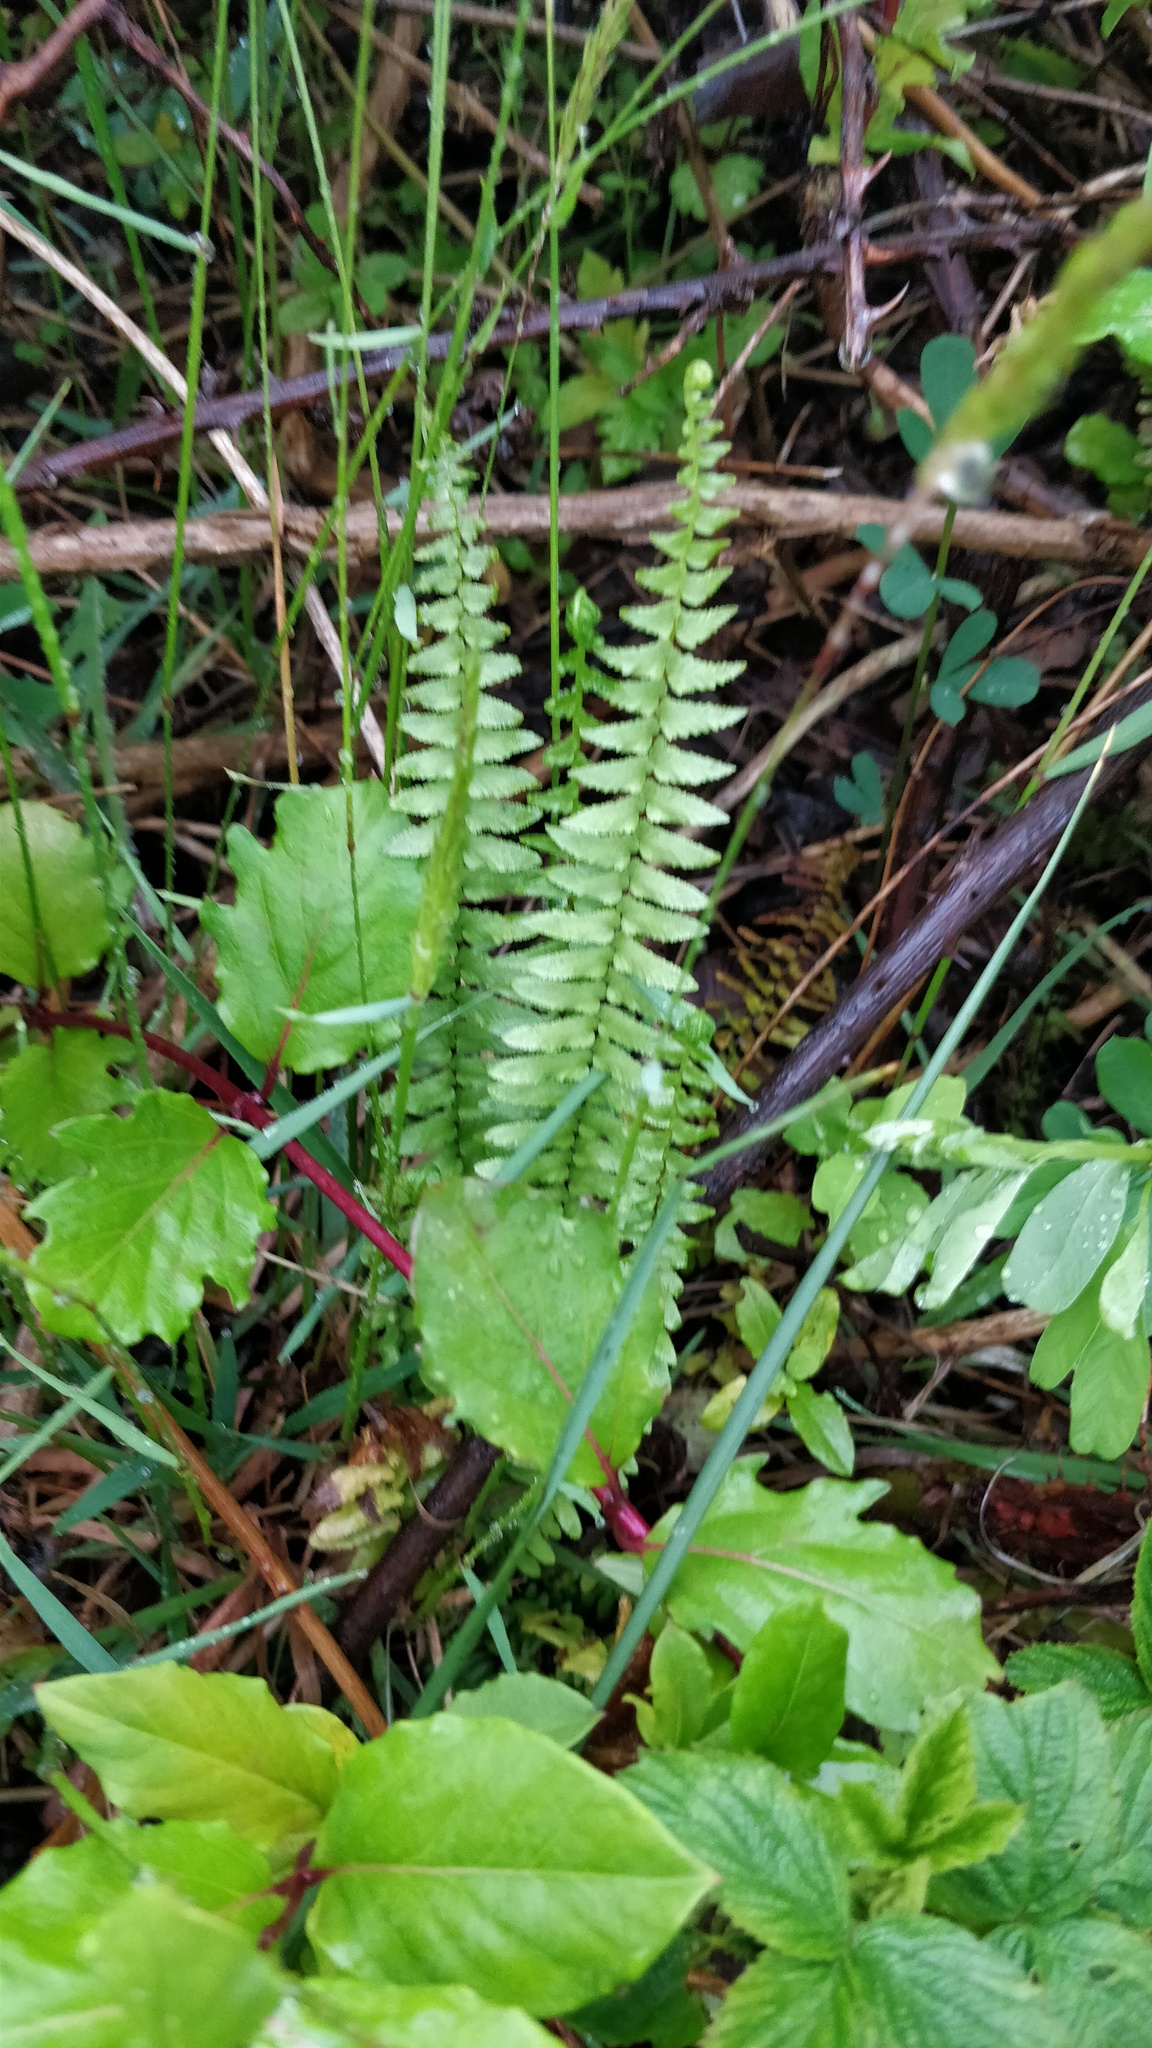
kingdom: Plantae
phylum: Tracheophyta
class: Polypodiopsida
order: Polypodiales
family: Aspleniaceae
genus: Asplenium
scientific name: Asplenium platyneuron
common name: Ebony spleenwort
